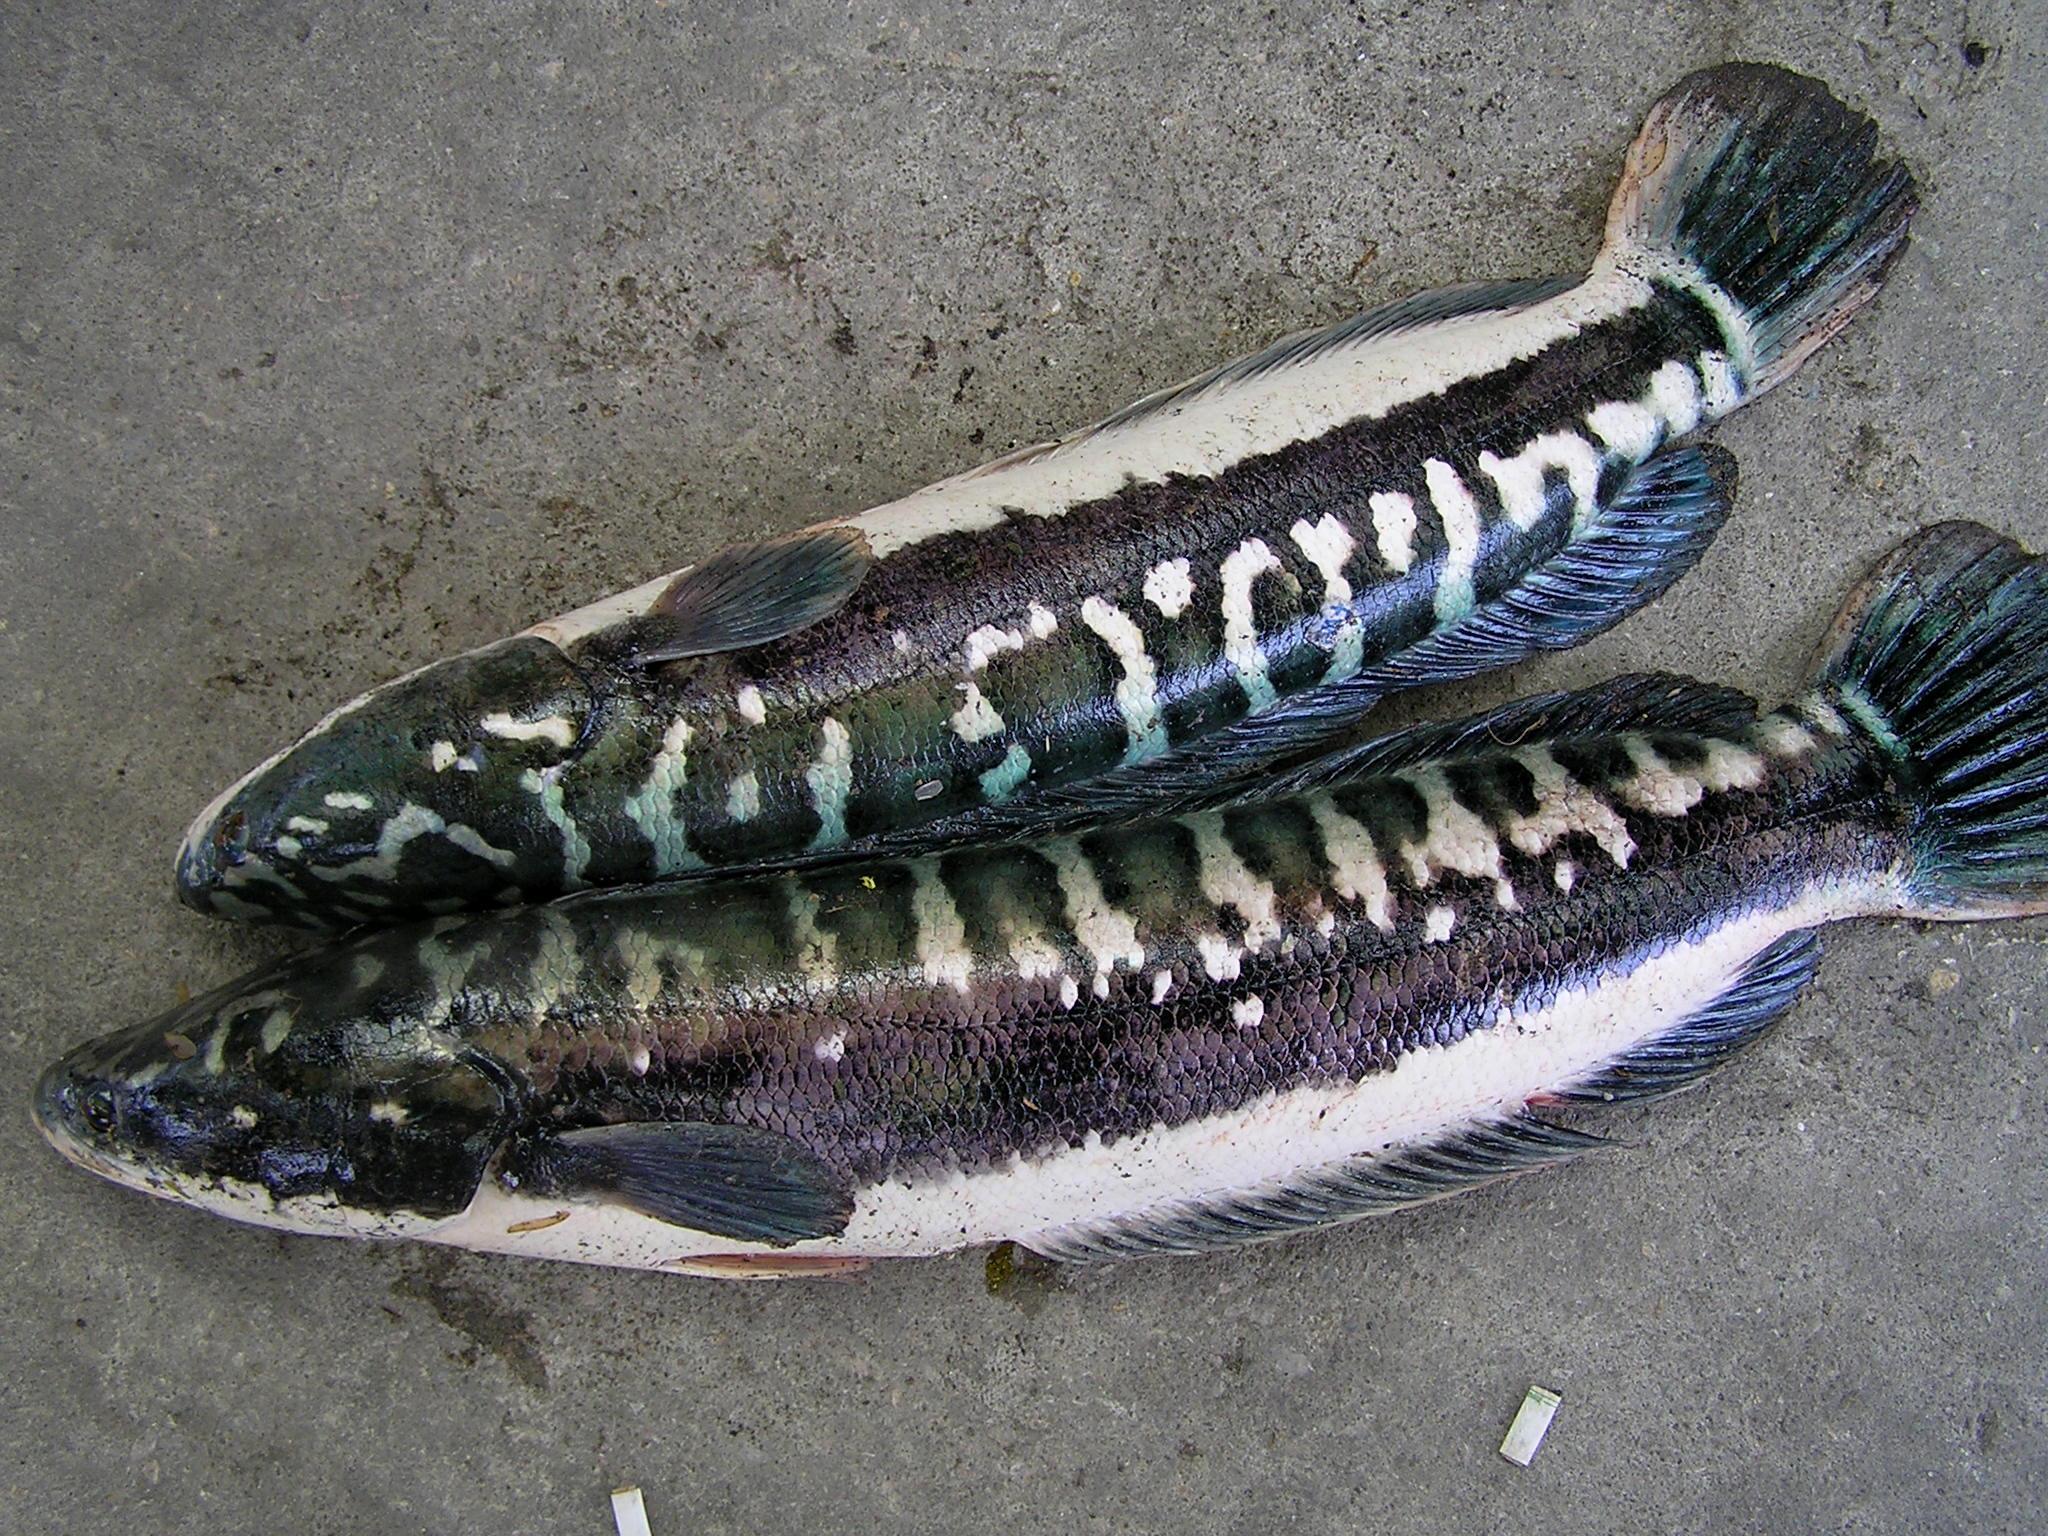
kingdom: Animalia
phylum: Chordata
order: Perciformes
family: Channidae
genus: Channa
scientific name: Channa micropeltes
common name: Giant snakehead
